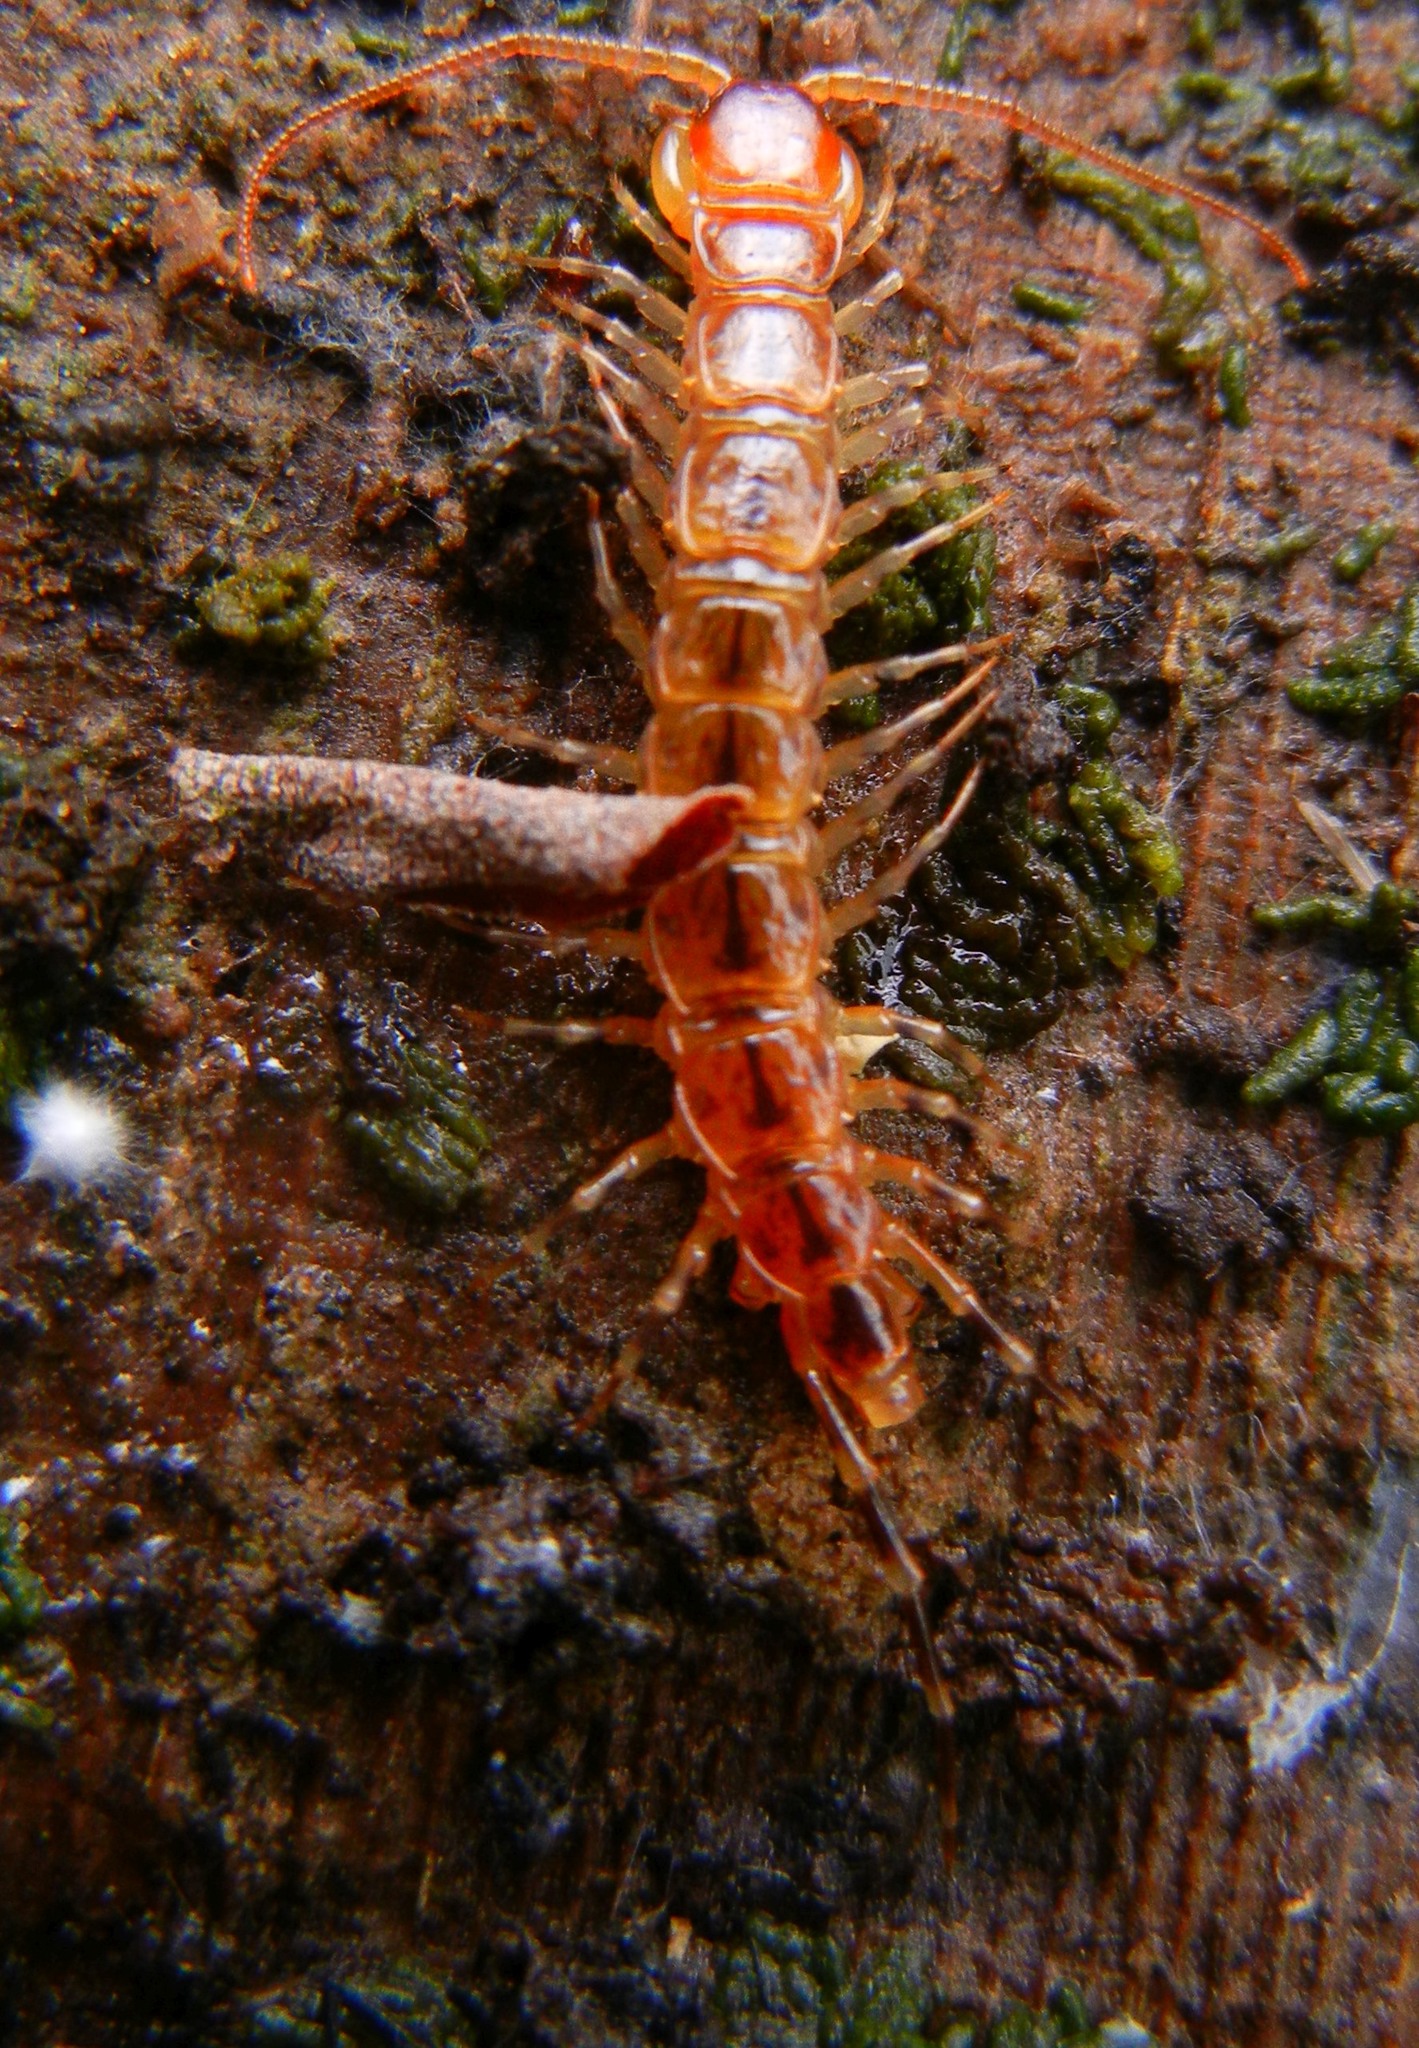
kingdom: Animalia
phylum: Arthropoda
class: Chilopoda
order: Lithobiomorpha
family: Lithobiidae
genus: Lithobius
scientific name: Lithobius variegatus
